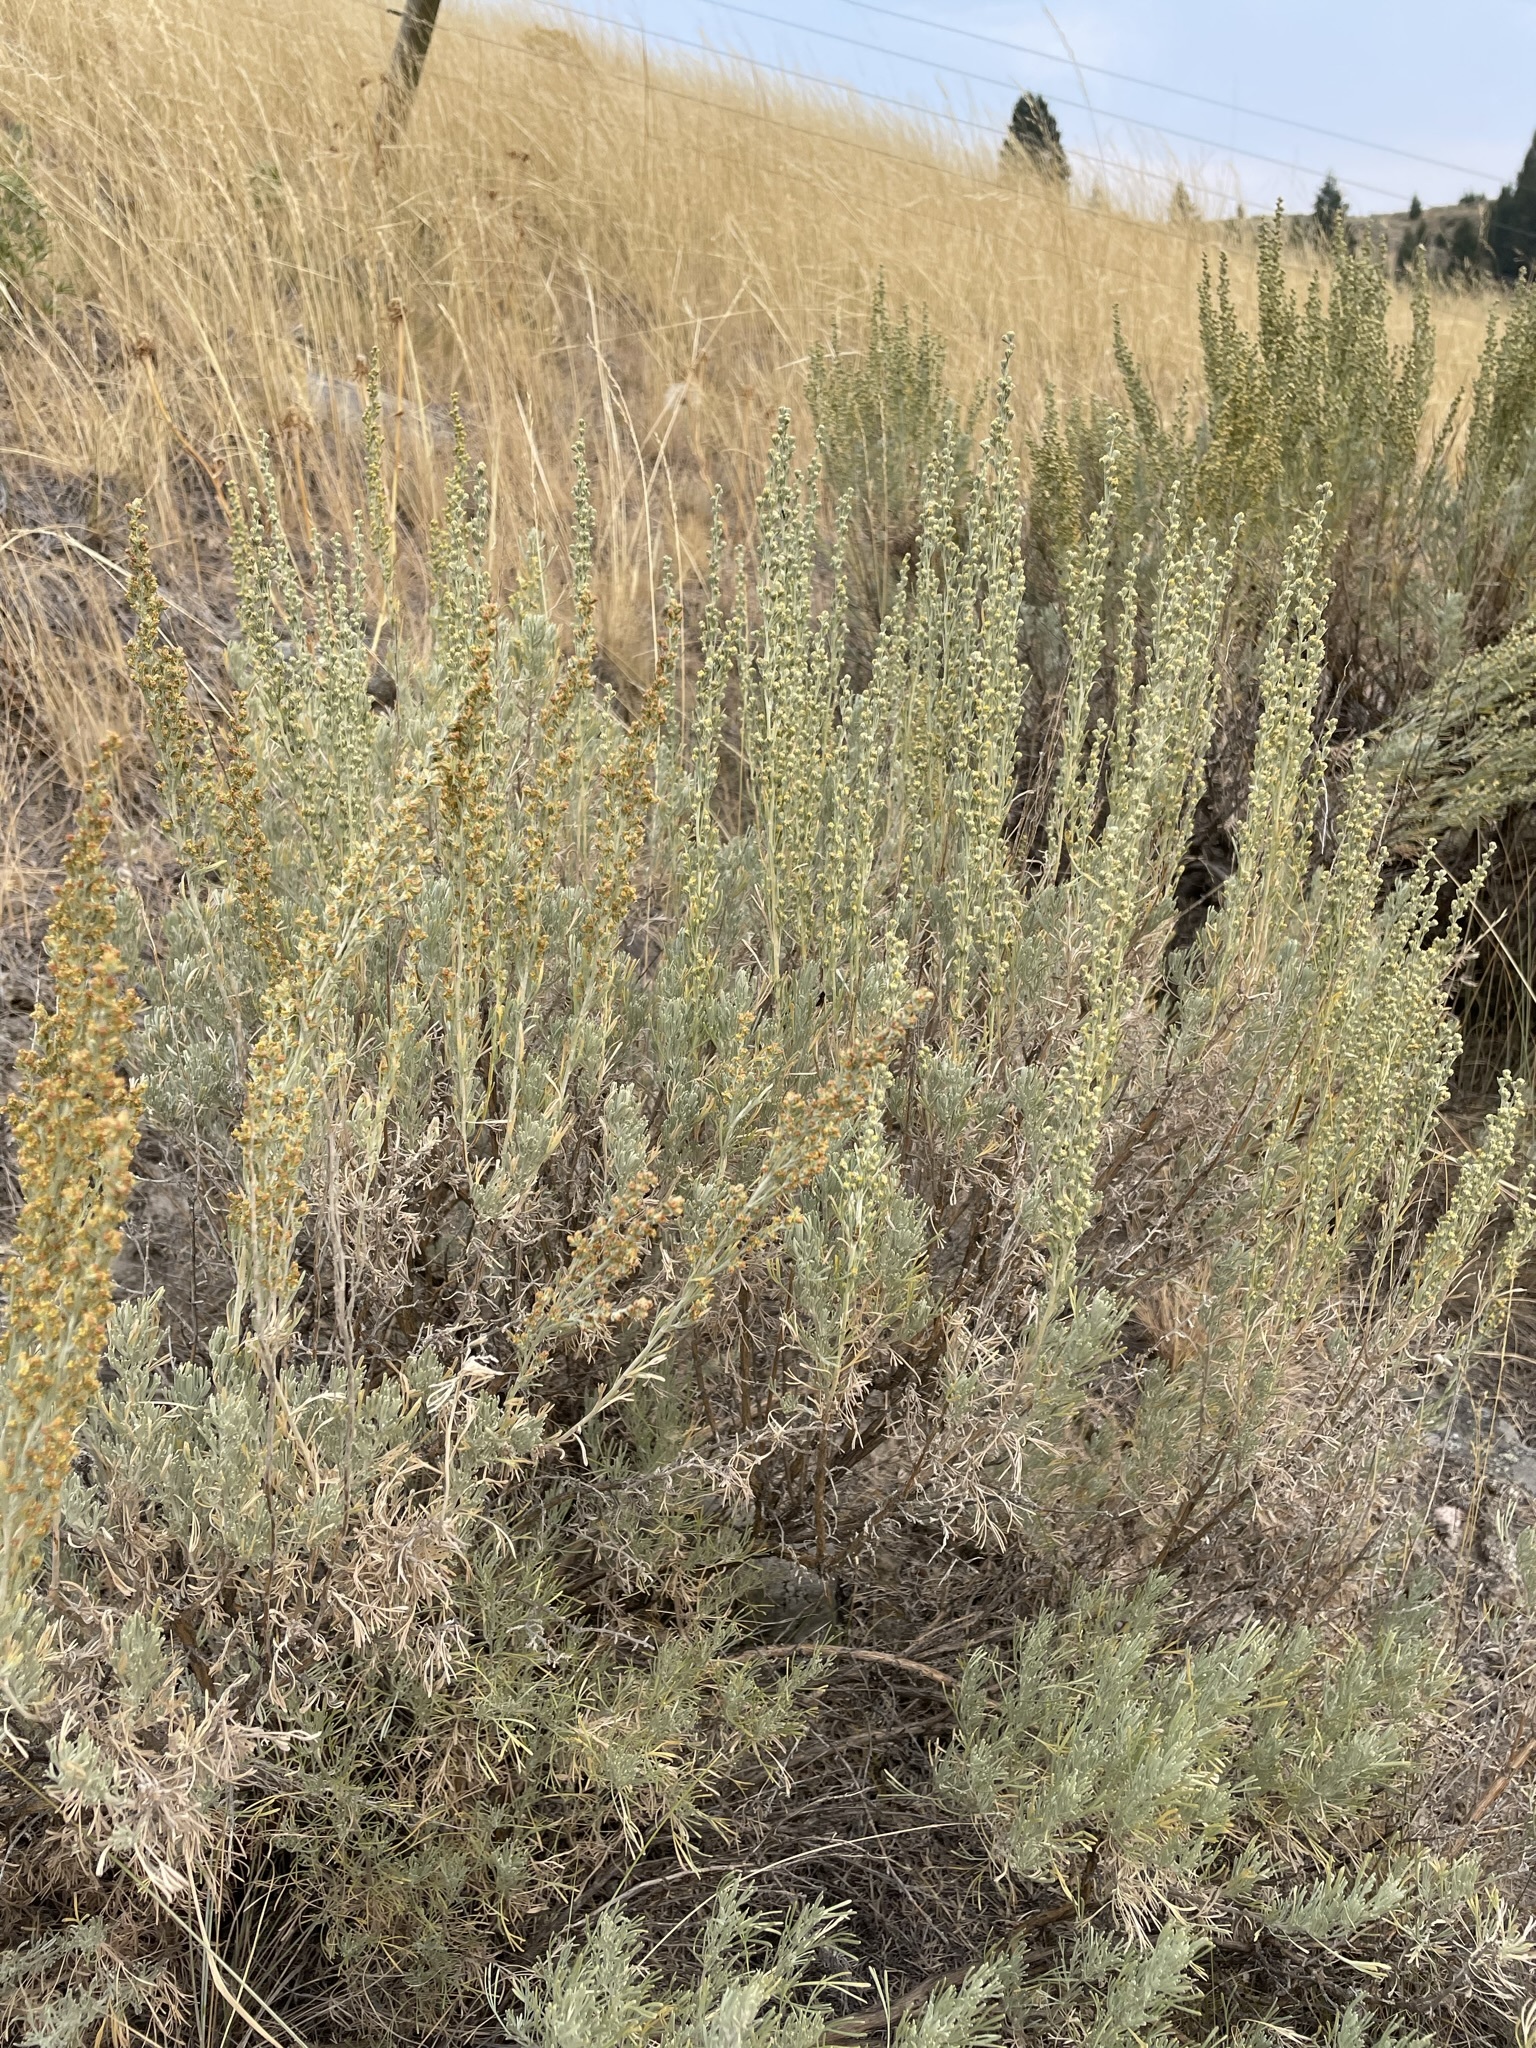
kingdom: Plantae
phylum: Tracheophyta
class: Magnoliopsida
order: Asterales
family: Asteraceae
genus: Artemisia
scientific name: Artemisia tripartita
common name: Three-tip sagebrush
